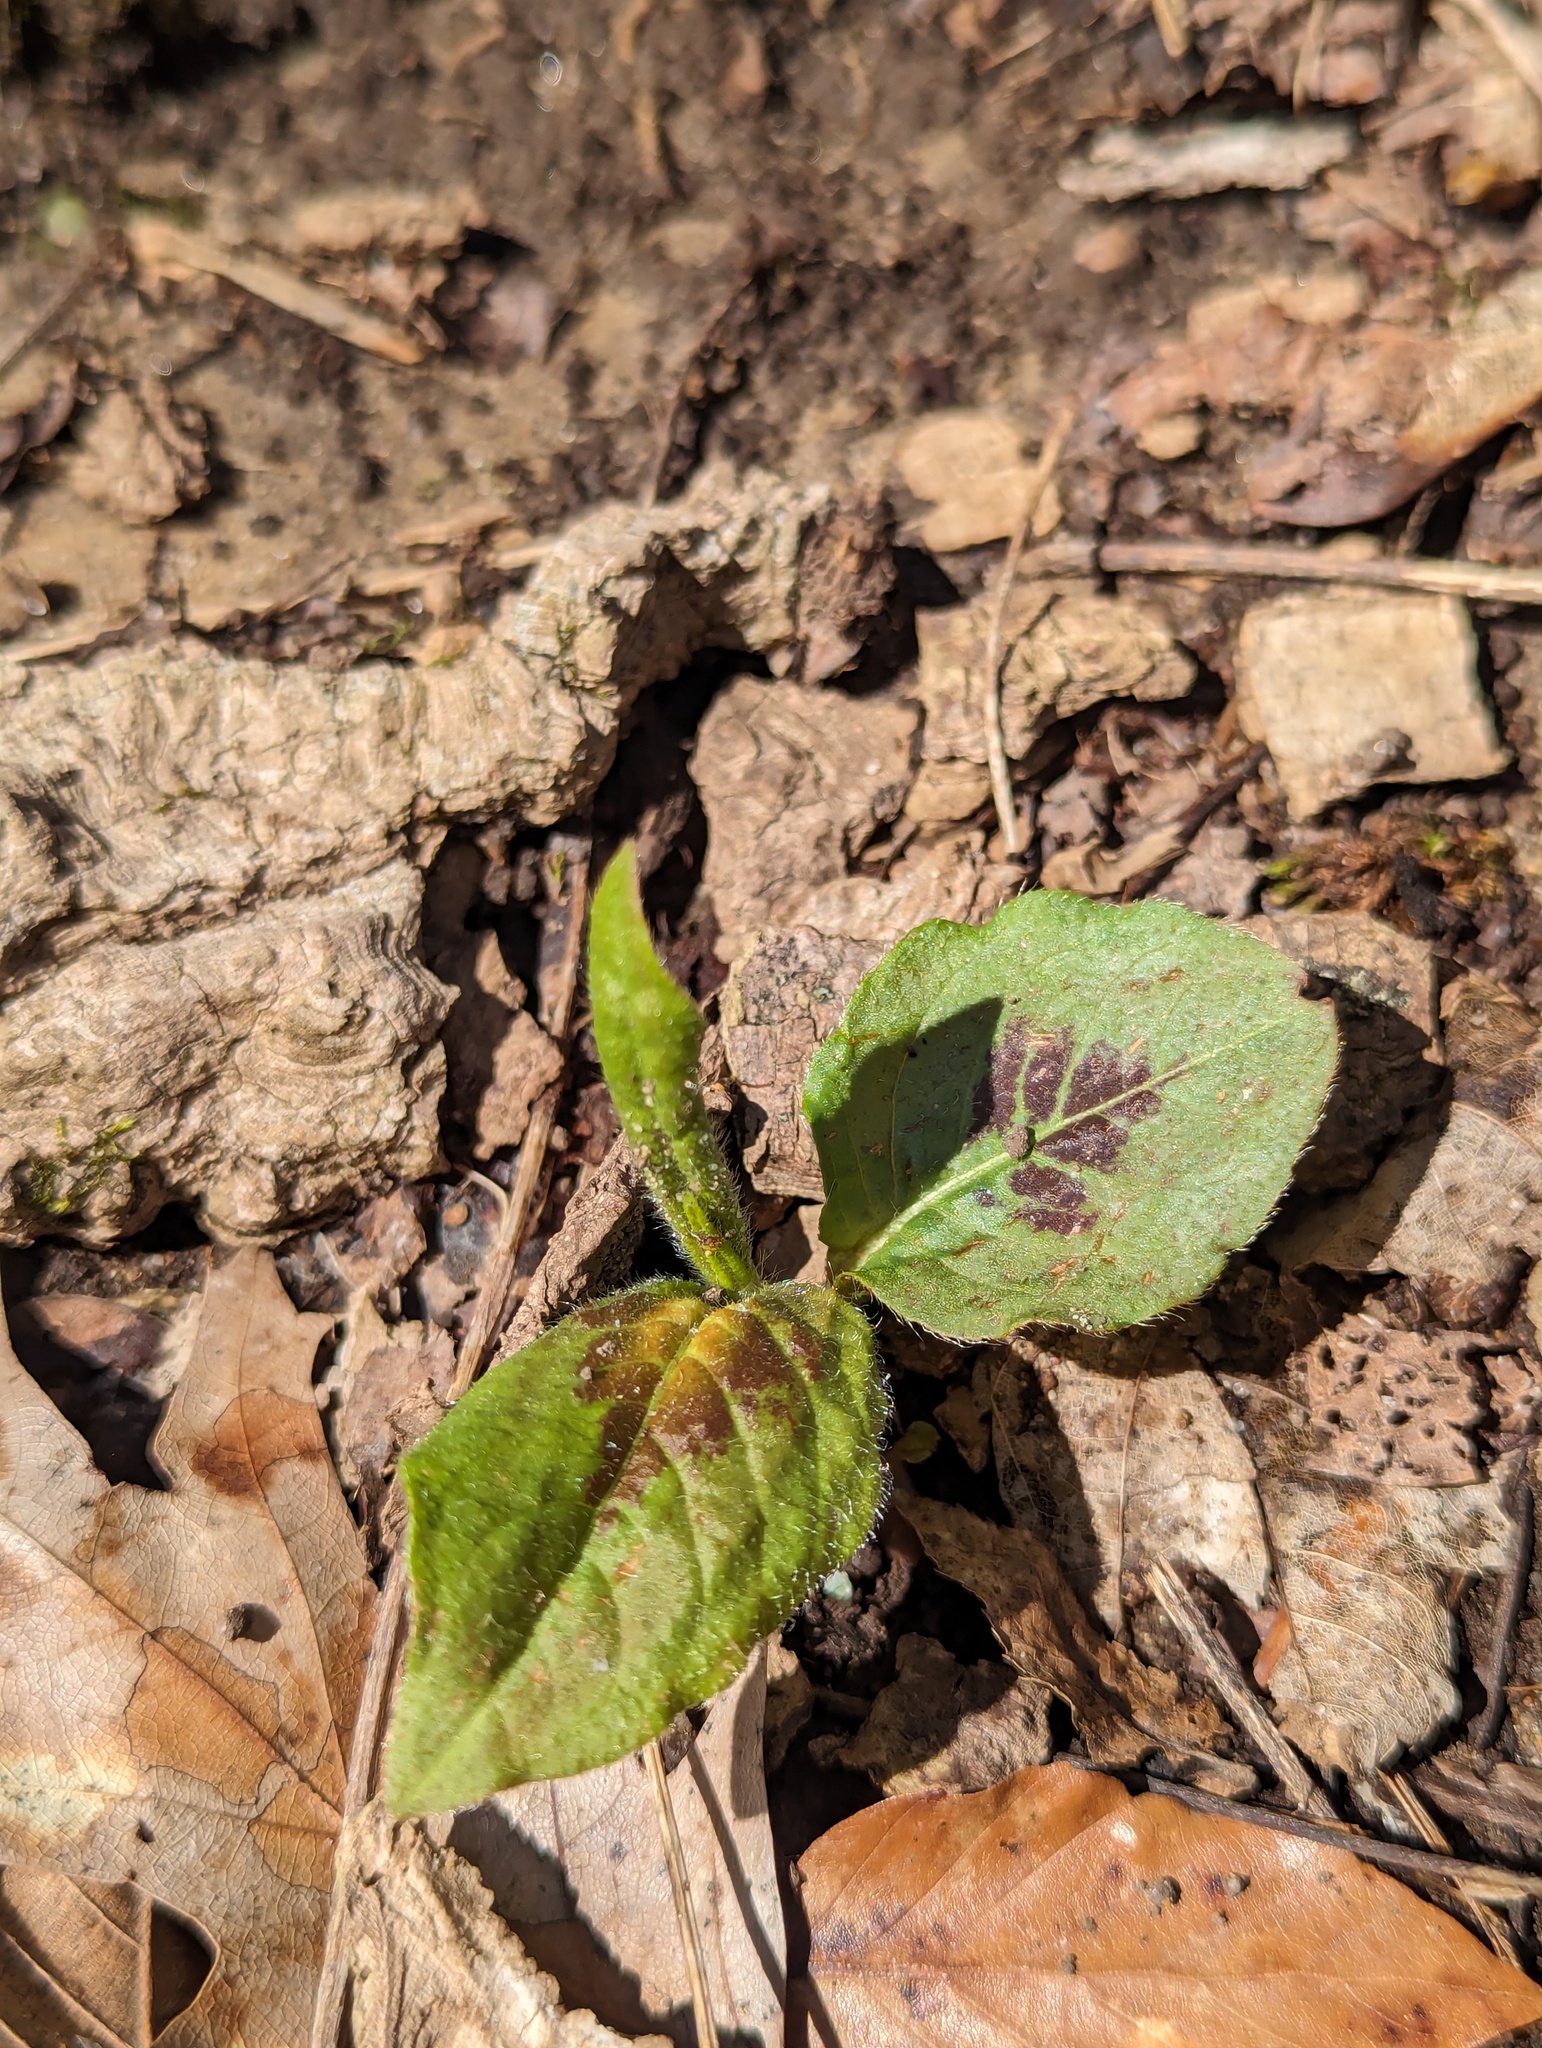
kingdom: Plantae
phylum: Tracheophyta
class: Magnoliopsida
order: Caryophyllales
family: Polygonaceae
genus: Persicaria
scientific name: Persicaria virginiana
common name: Jumpseed
